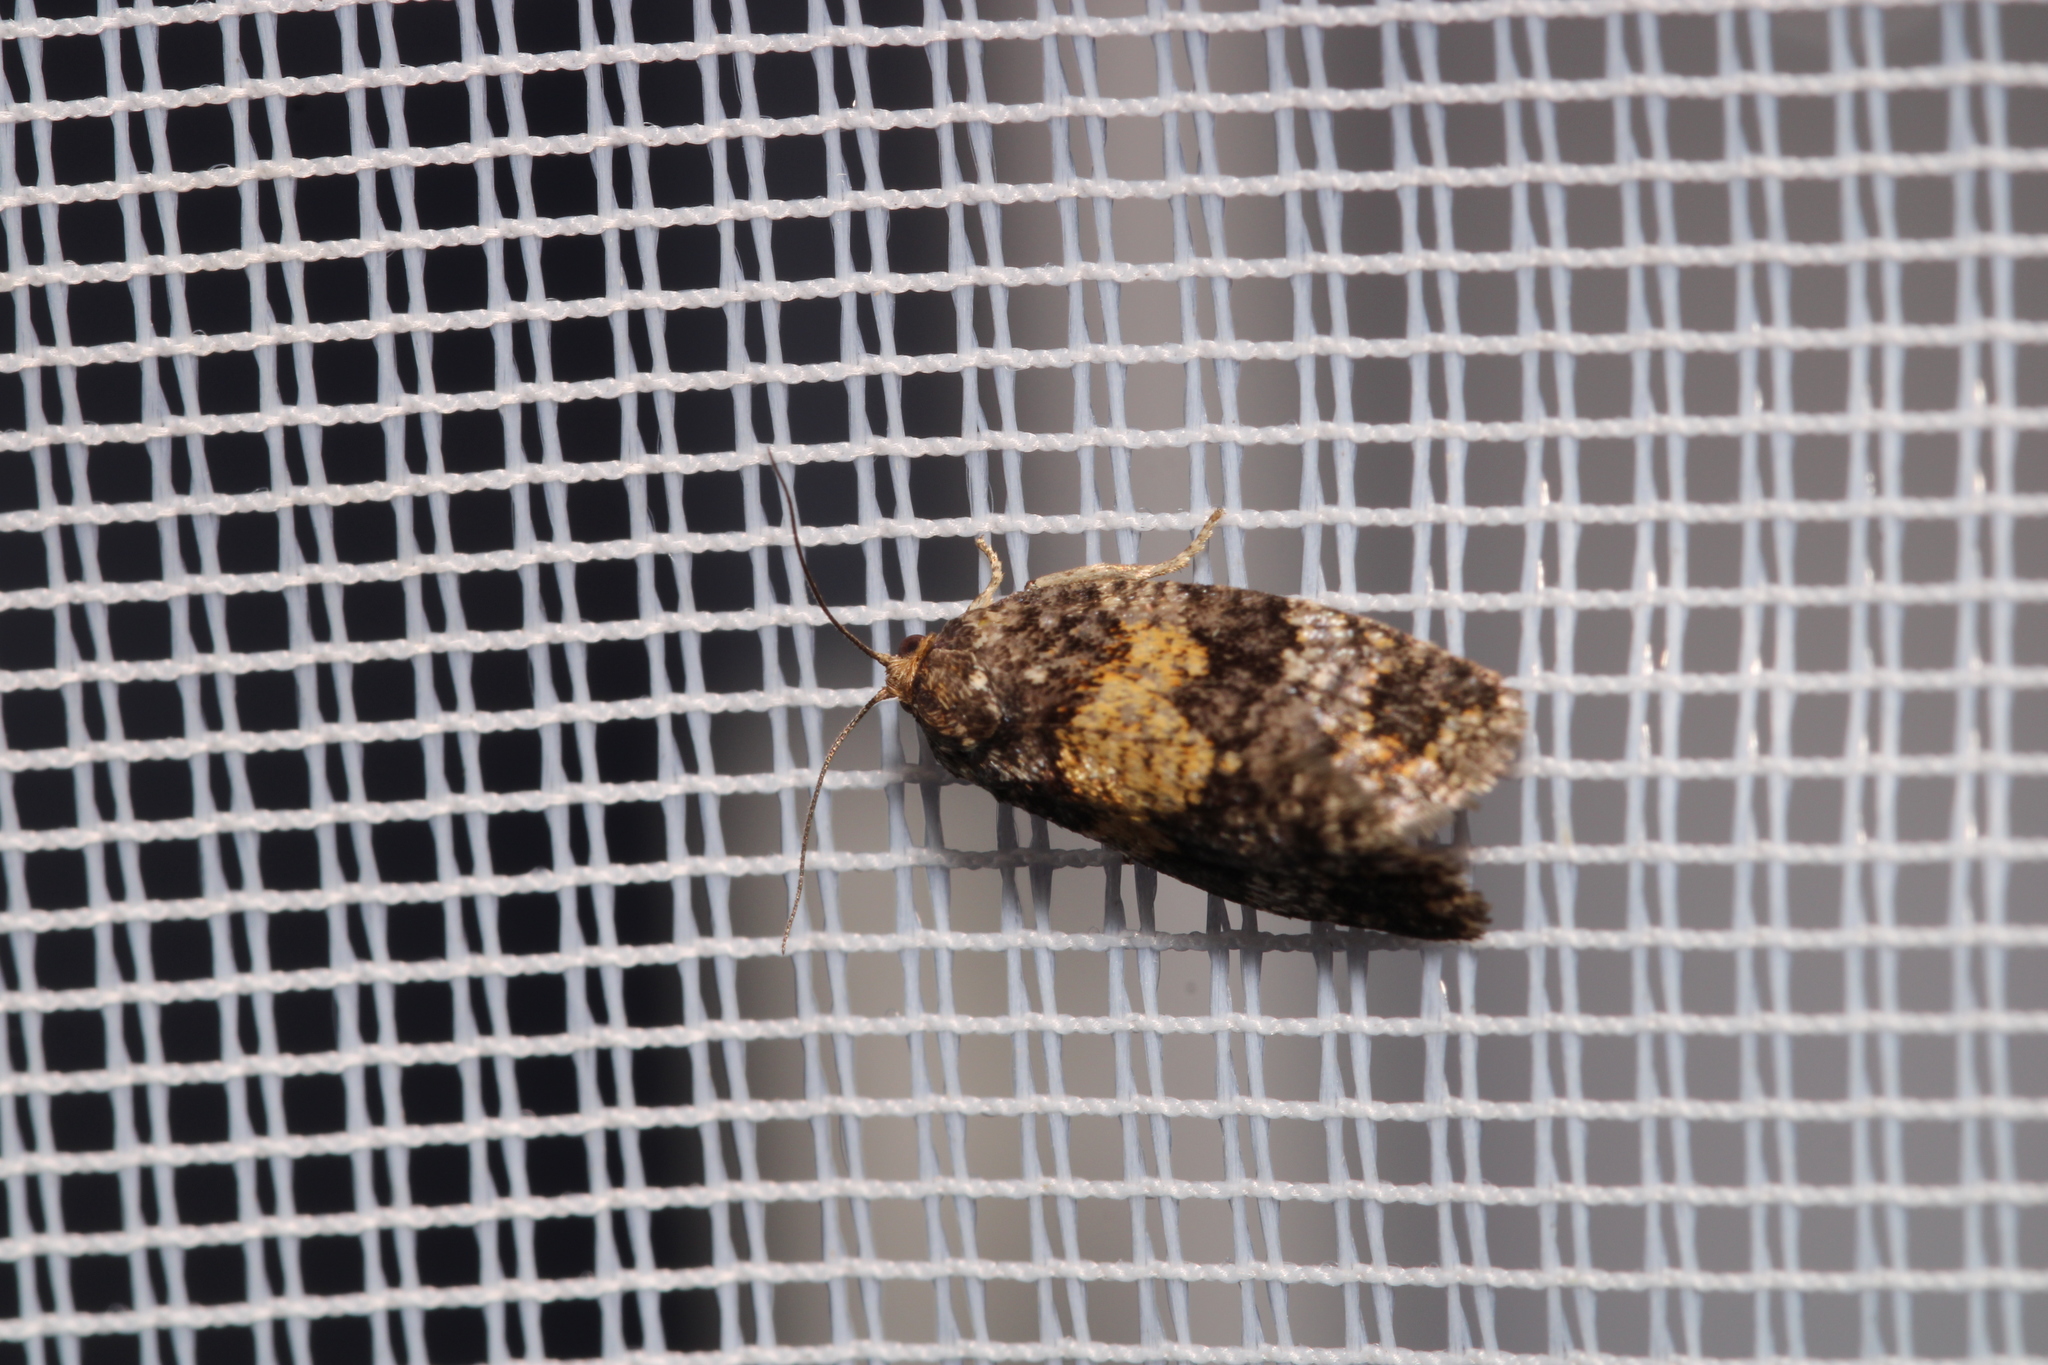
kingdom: Animalia
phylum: Arthropoda
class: Insecta
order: Lepidoptera
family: Tortricidae
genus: Ptycholomoides
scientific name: Ptycholomoides aeriferana
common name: Yellow larch tortrix
